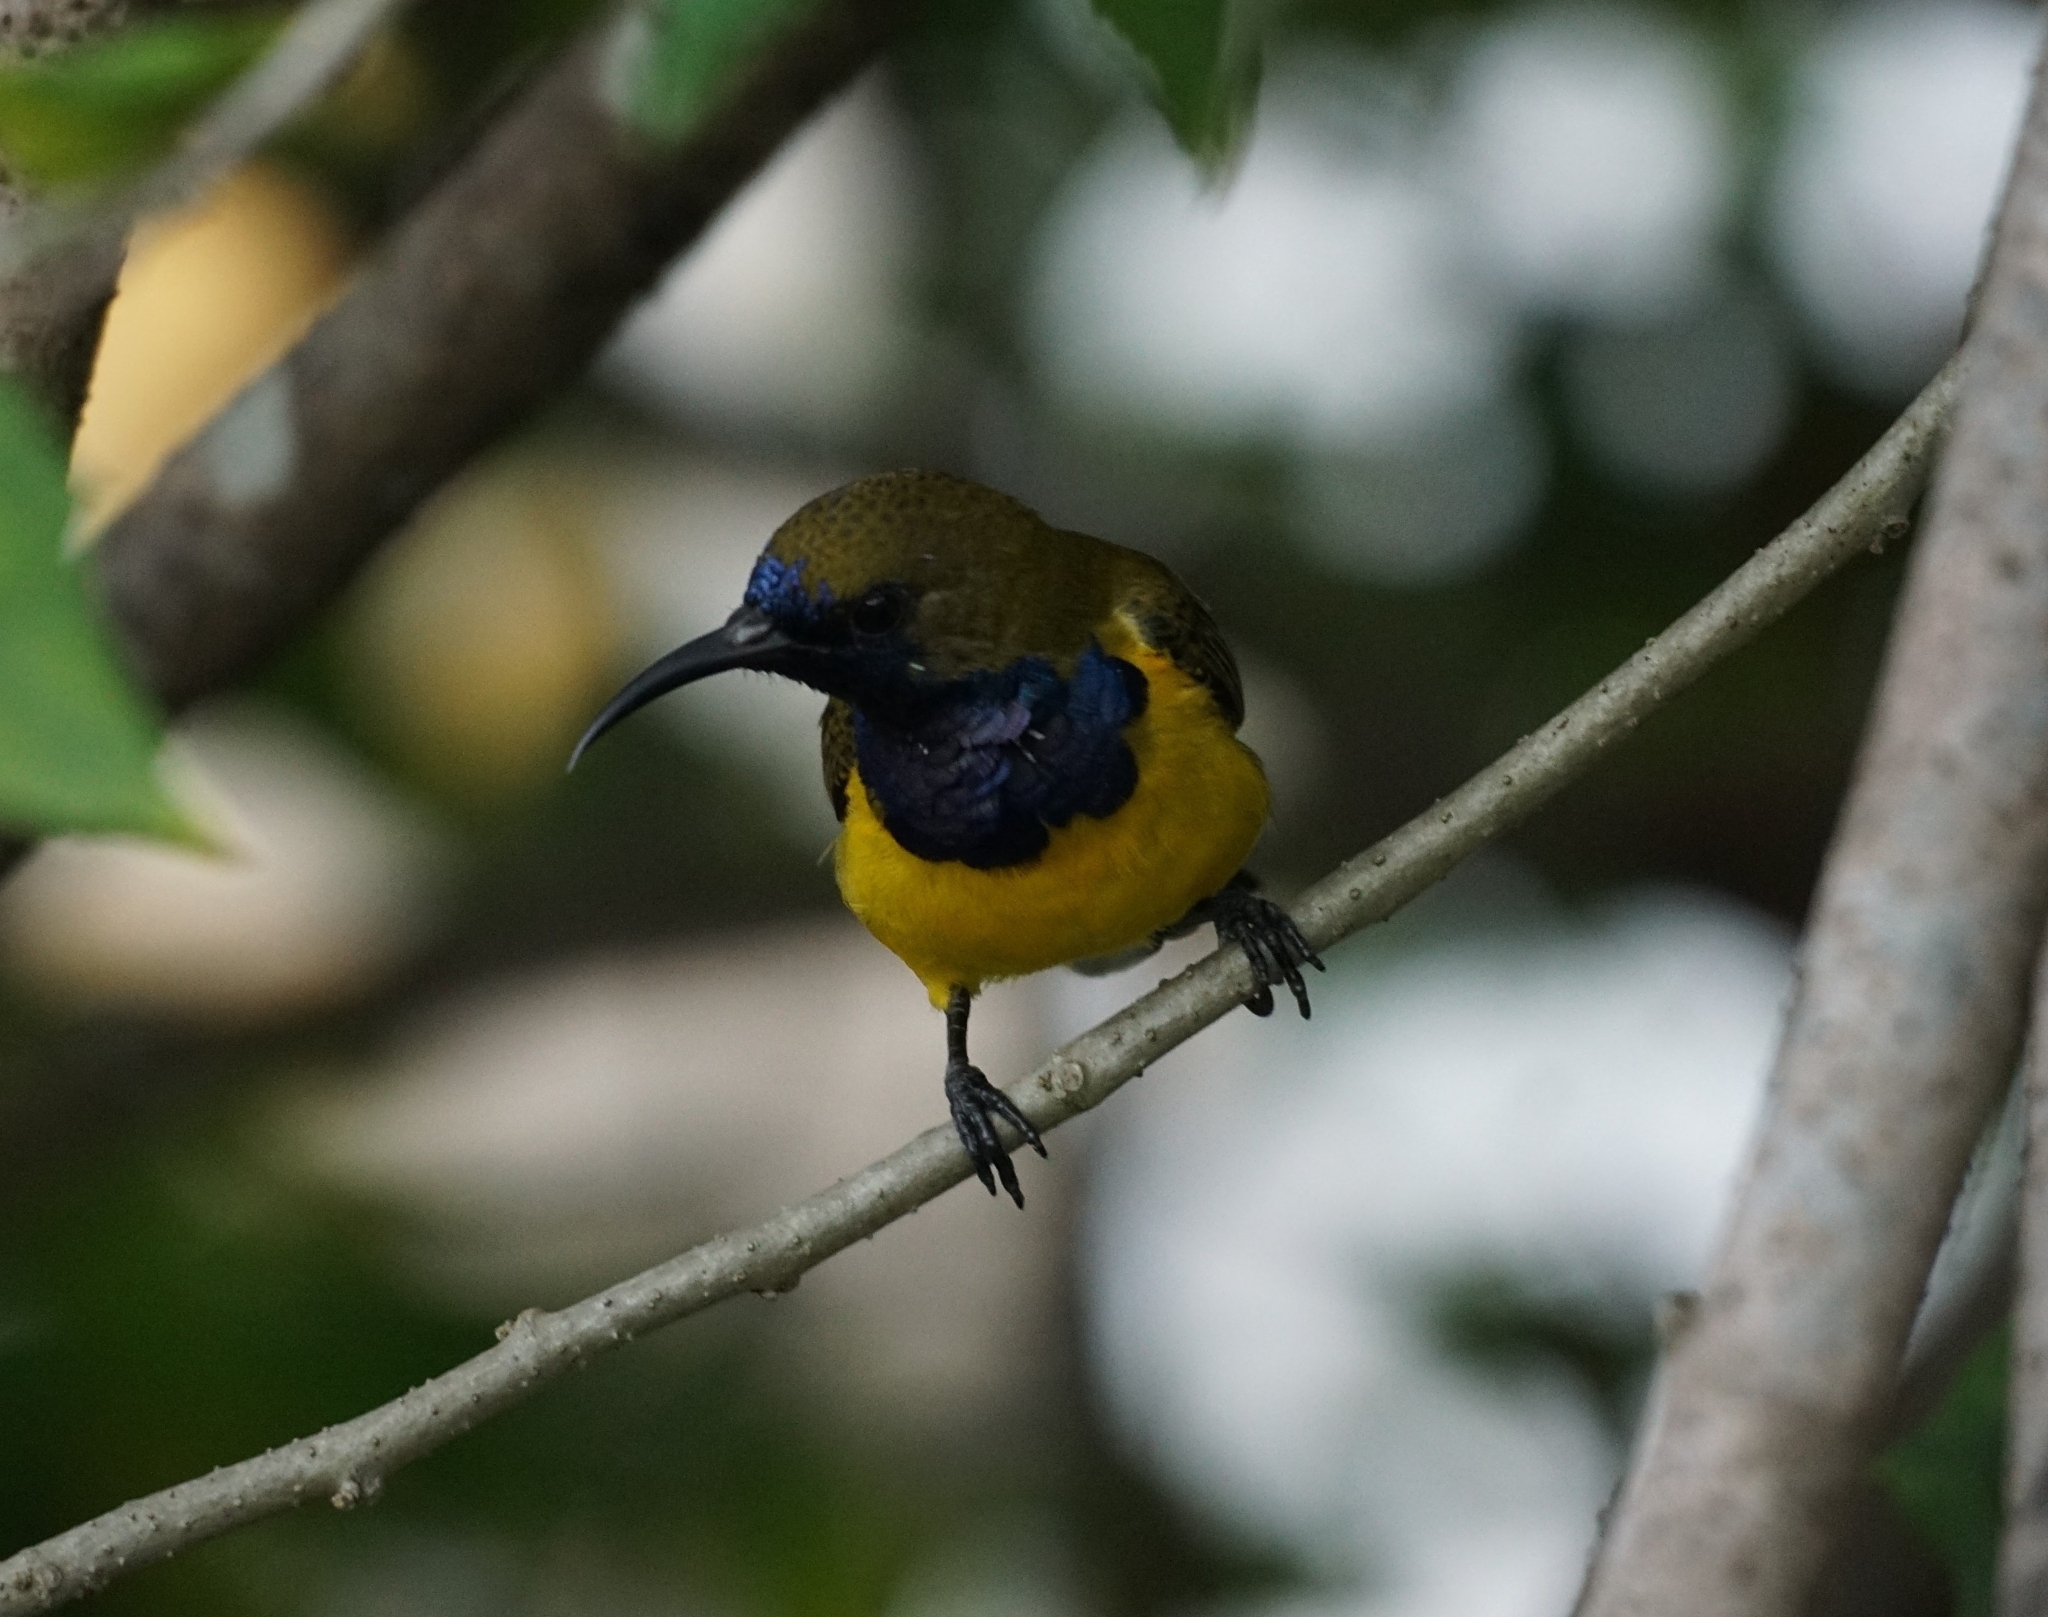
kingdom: Animalia
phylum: Chordata
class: Aves
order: Passeriformes
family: Nectariniidae
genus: Cinnyris
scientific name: Cinnyris
